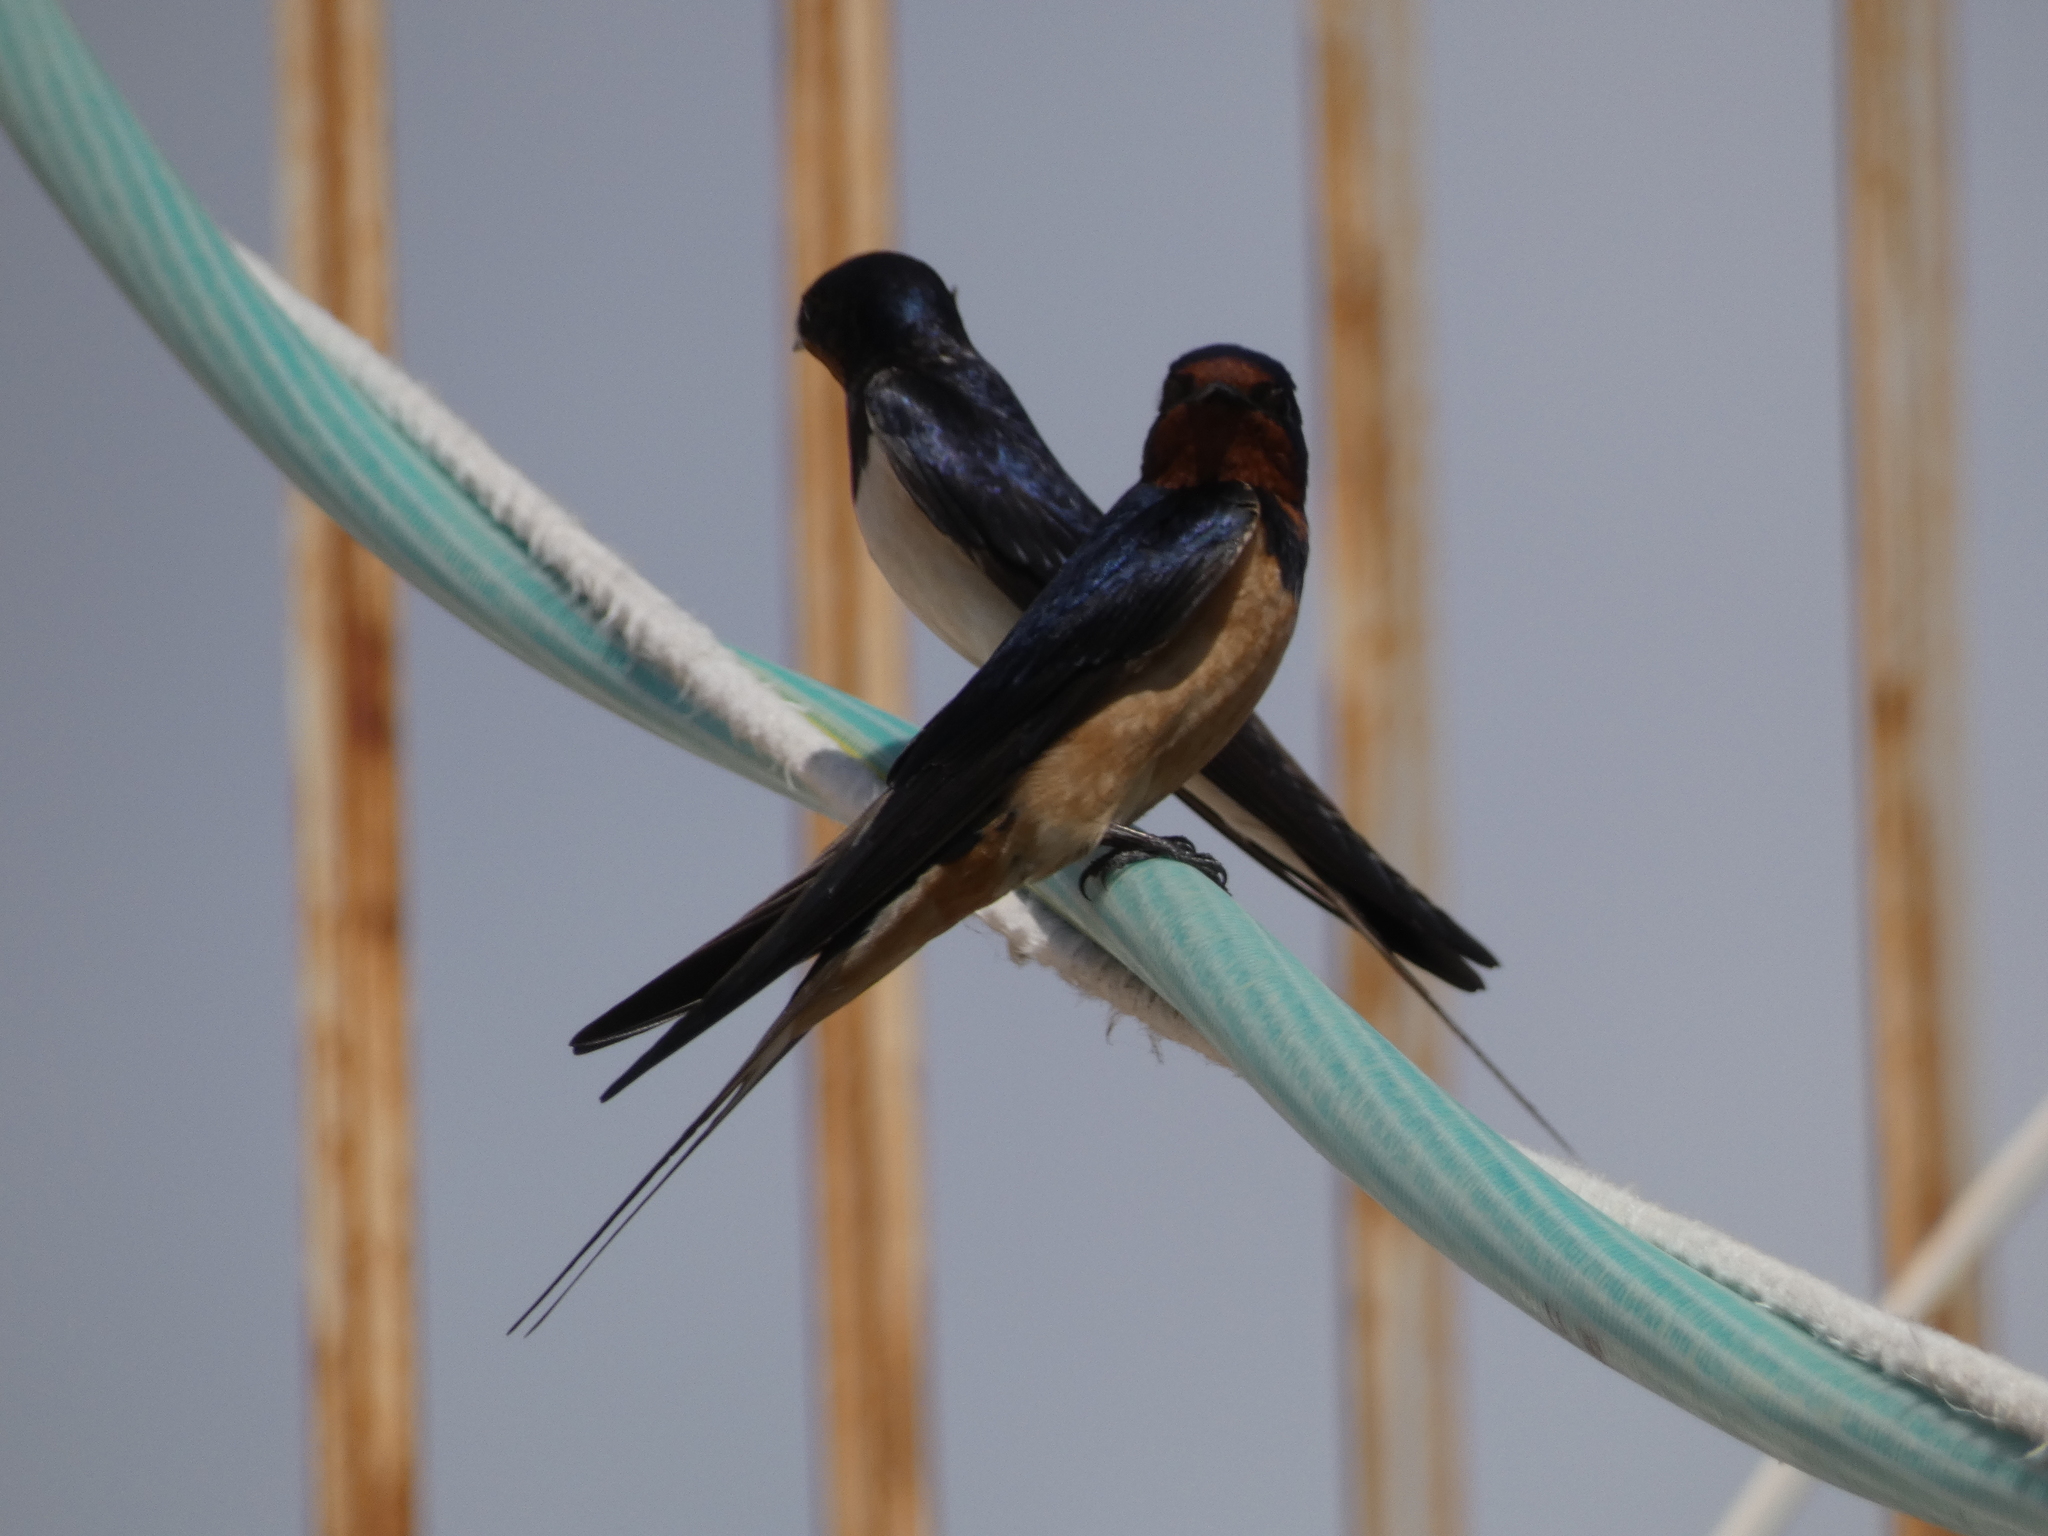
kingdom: Animalia
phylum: Chordata
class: Aves
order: Passeriformes
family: Hirundinidae
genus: Hirundo
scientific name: Hirundo rustica
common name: Barn swallow
